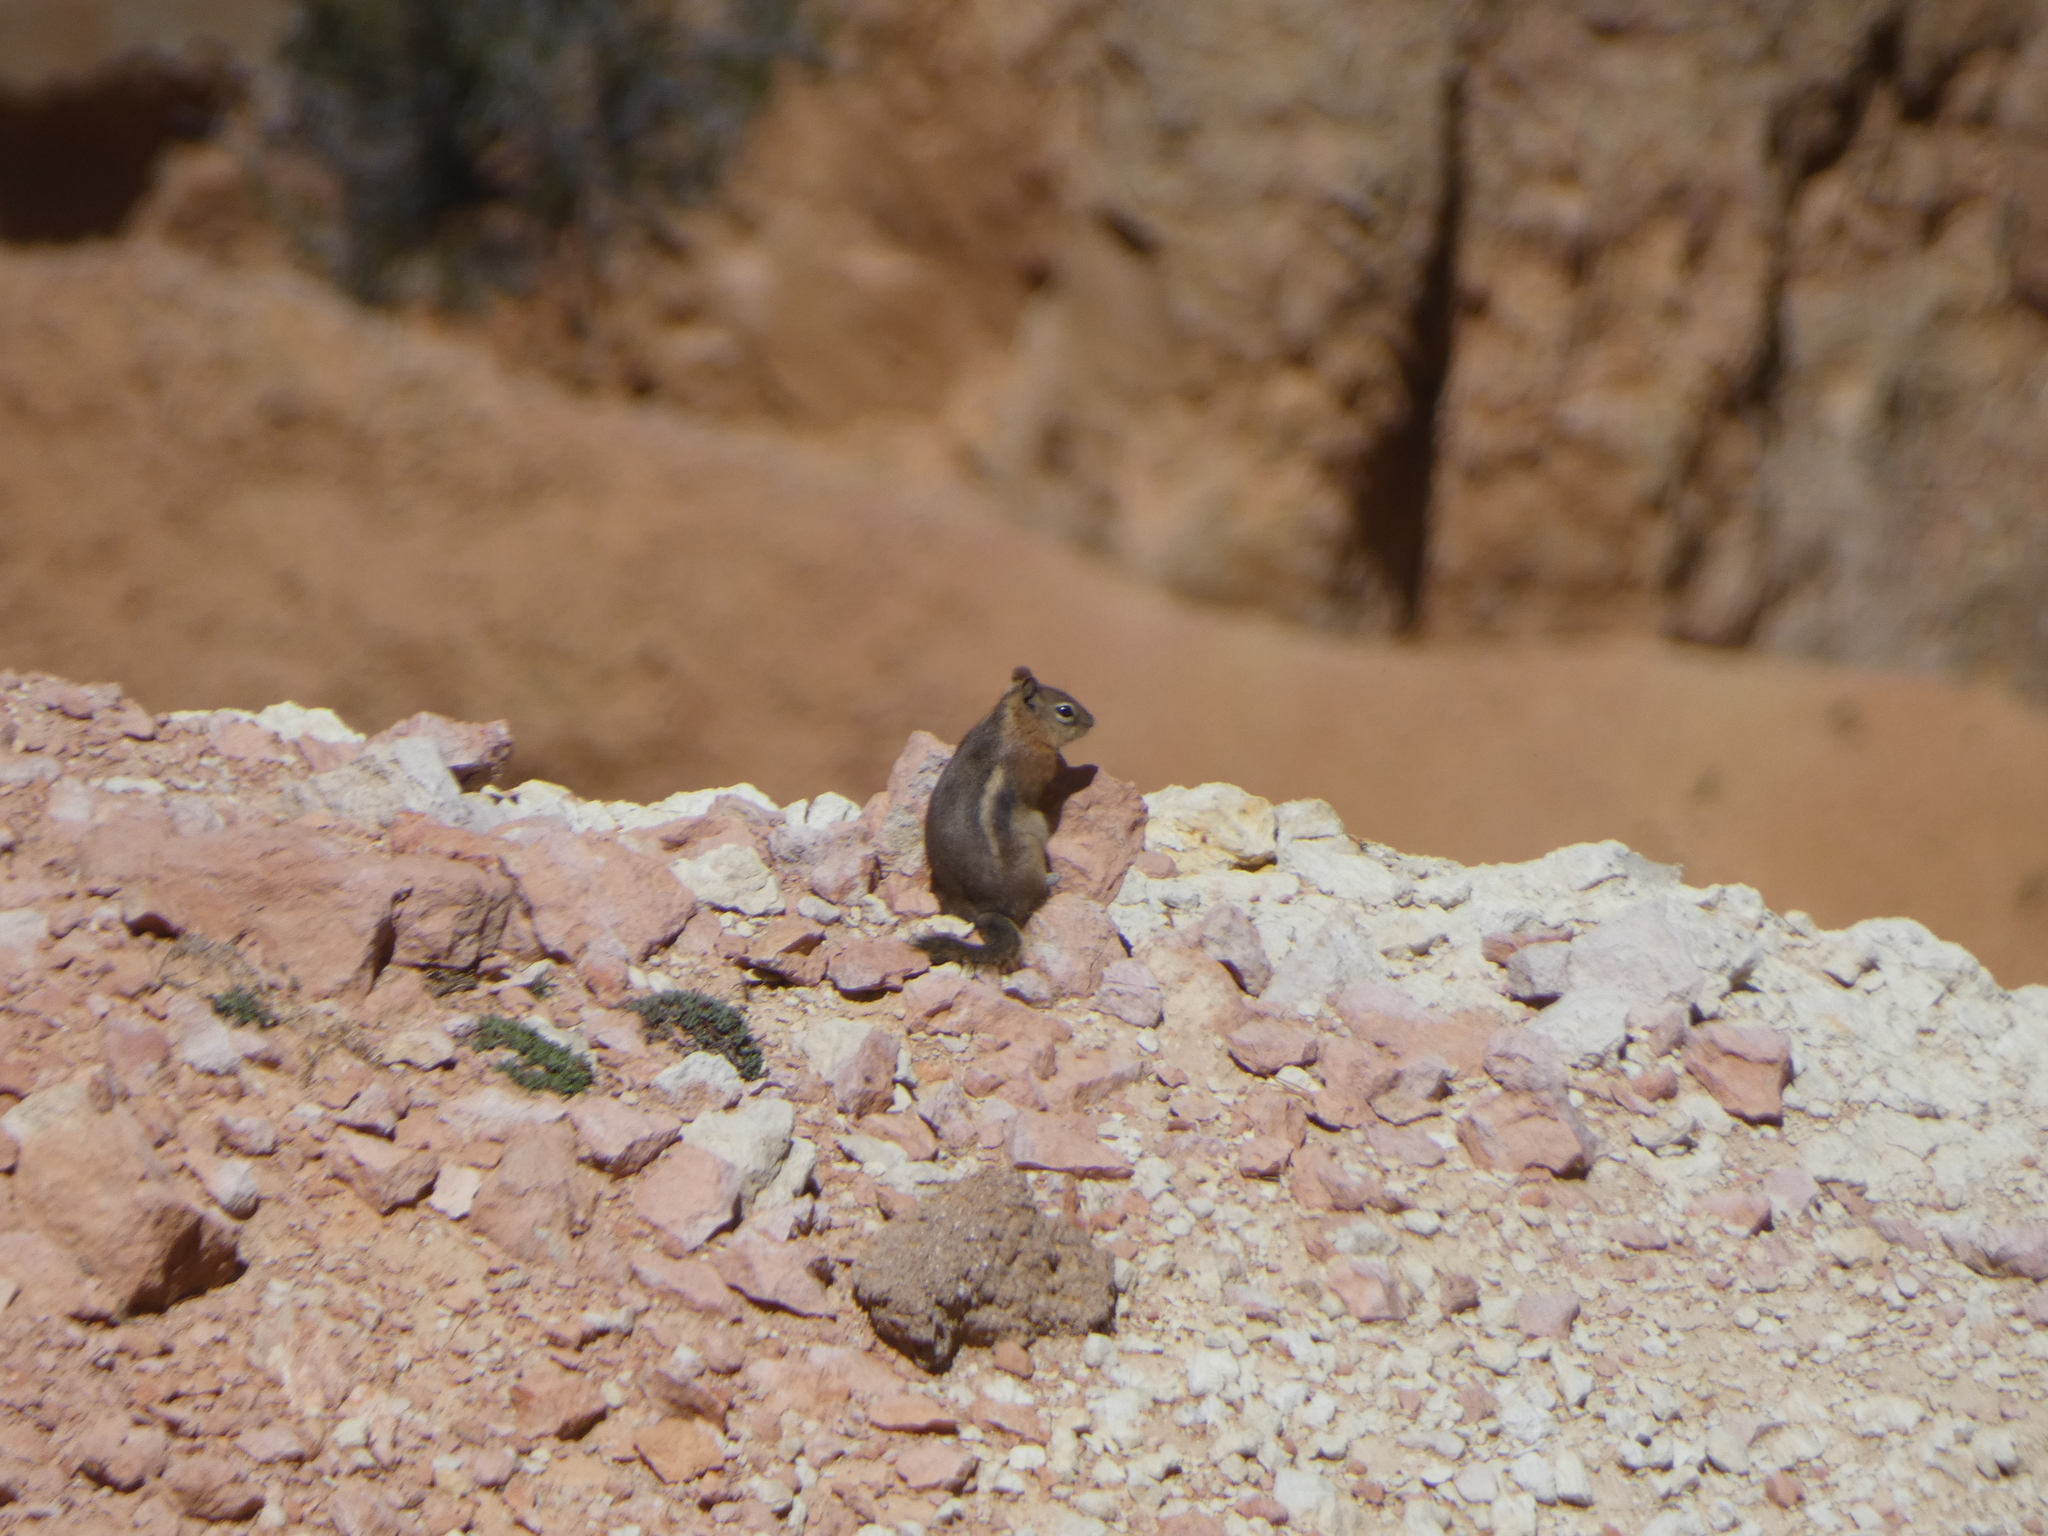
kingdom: Animalia
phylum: Chordata
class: Mammalia
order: Rodentia
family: Sciuridae
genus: Callospermophilus
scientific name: Callospermophilus lateralis
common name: Golden-mantled ground squirrel
